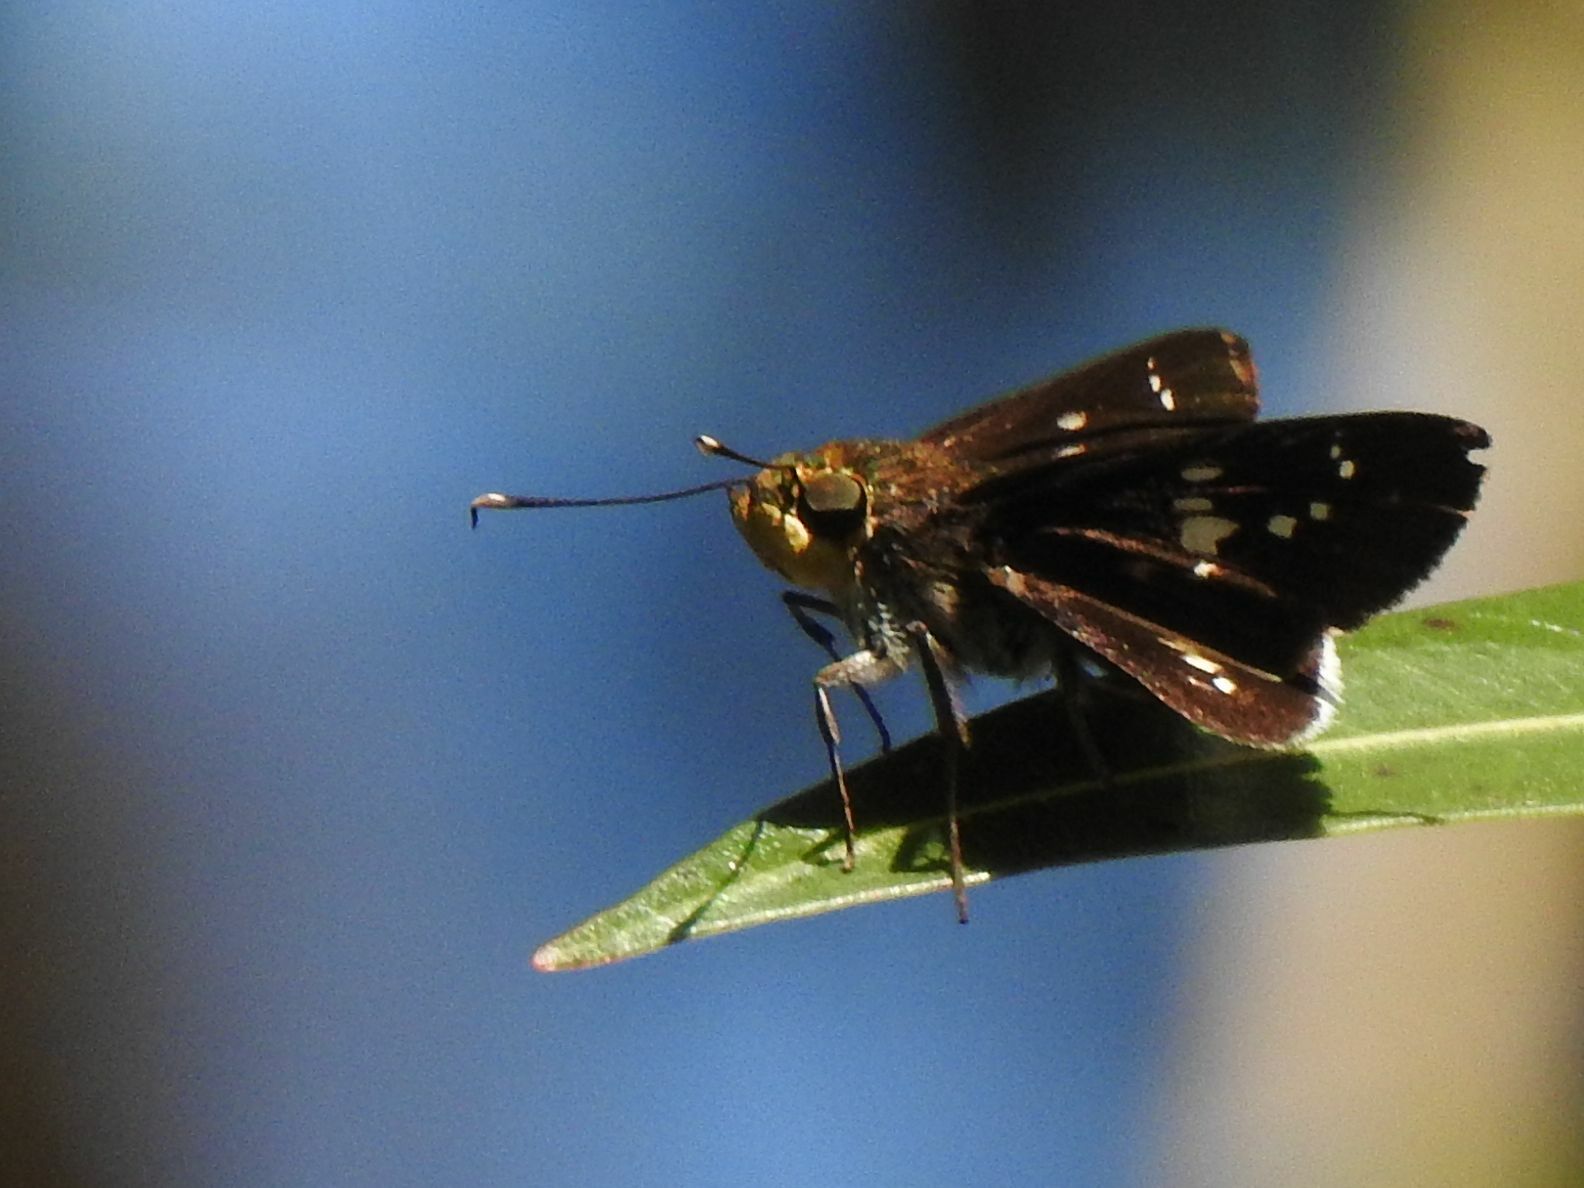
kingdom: Animalia
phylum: Arthropoda
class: Insecta
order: Lepidoptera
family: Hesperiidae
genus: Platylesches
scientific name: Platylesches galesa
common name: White-tail hopper
